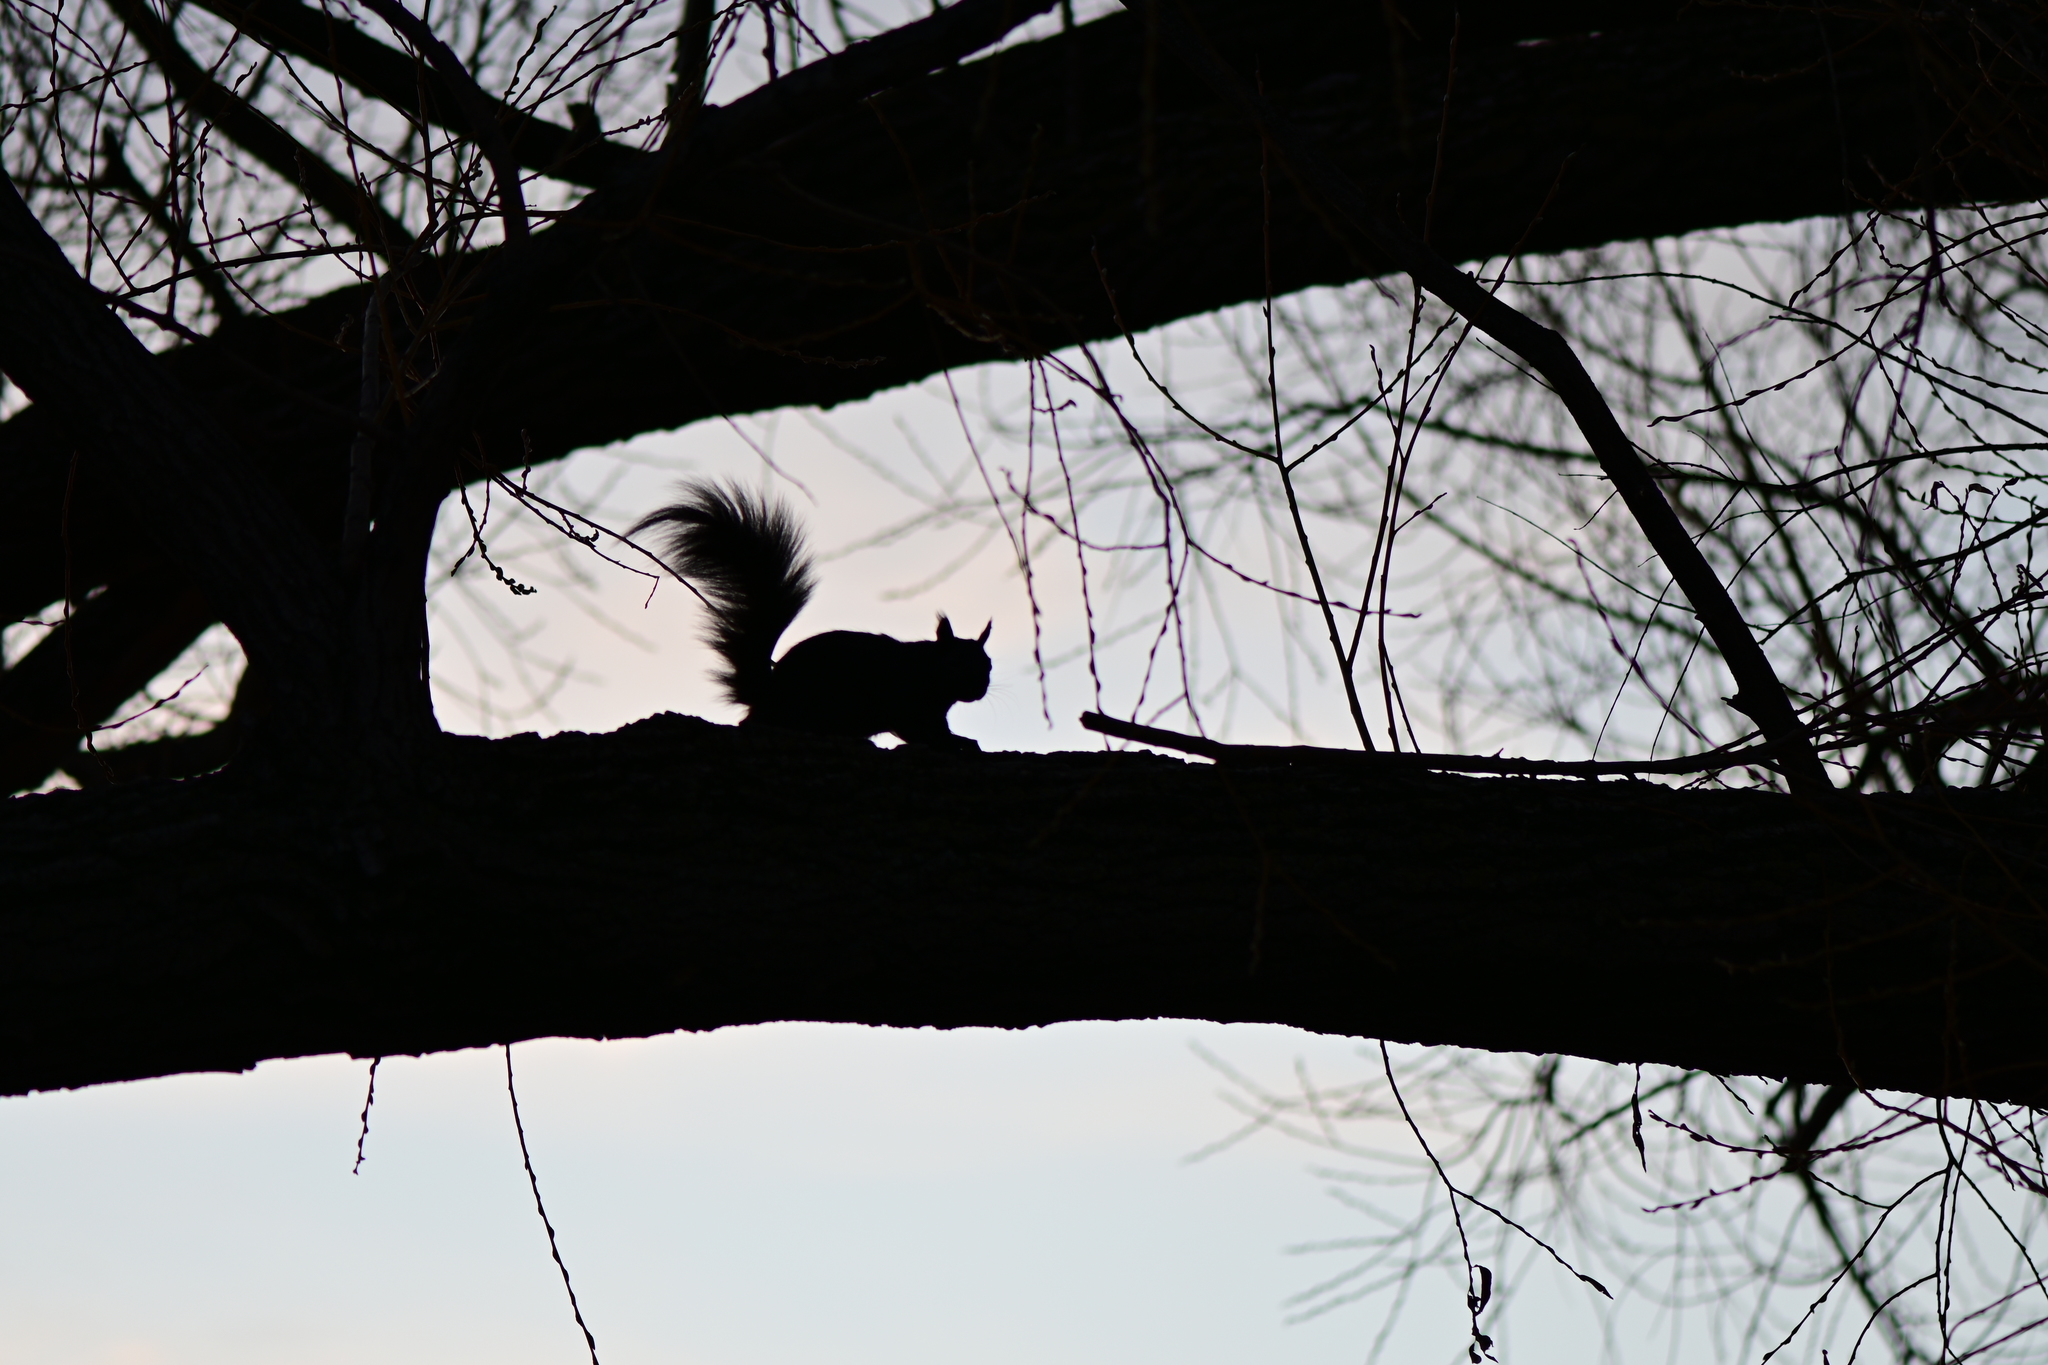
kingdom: Animalia
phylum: Chordata
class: Mammalia
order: Rodentia
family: Sciuridae
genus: Sciurus
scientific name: Sciurus carolinensis
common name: Eastern gray squirrel
